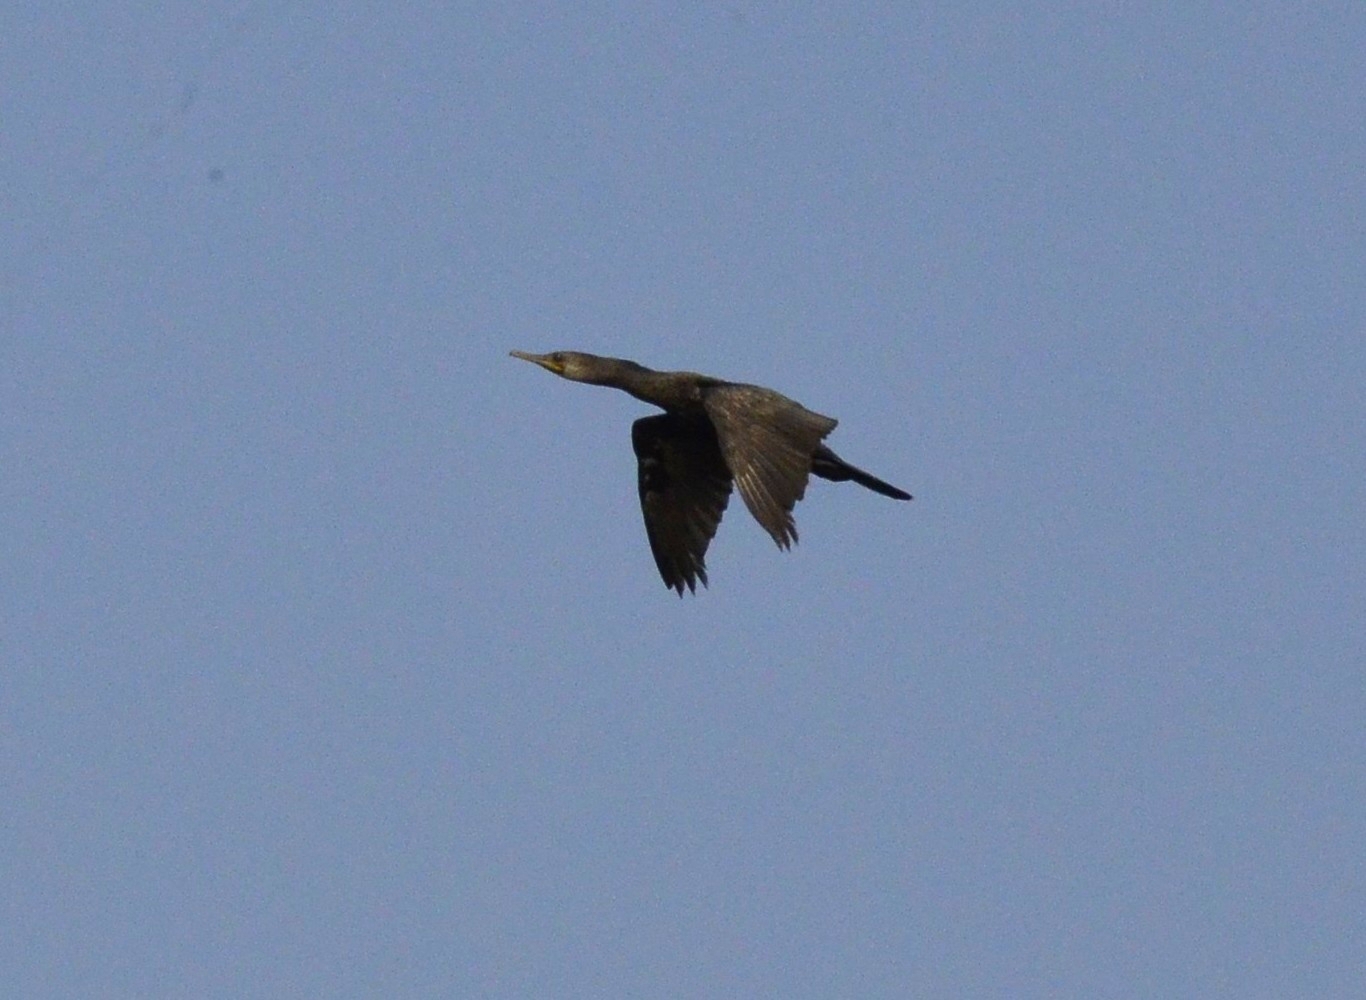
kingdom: Animalia
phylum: Chordata
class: Aves
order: Suliformes
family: Phalacrocoracidae
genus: Phalacrocorax
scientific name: Phalacrocorax fuscicollis
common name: Indian cormorant
